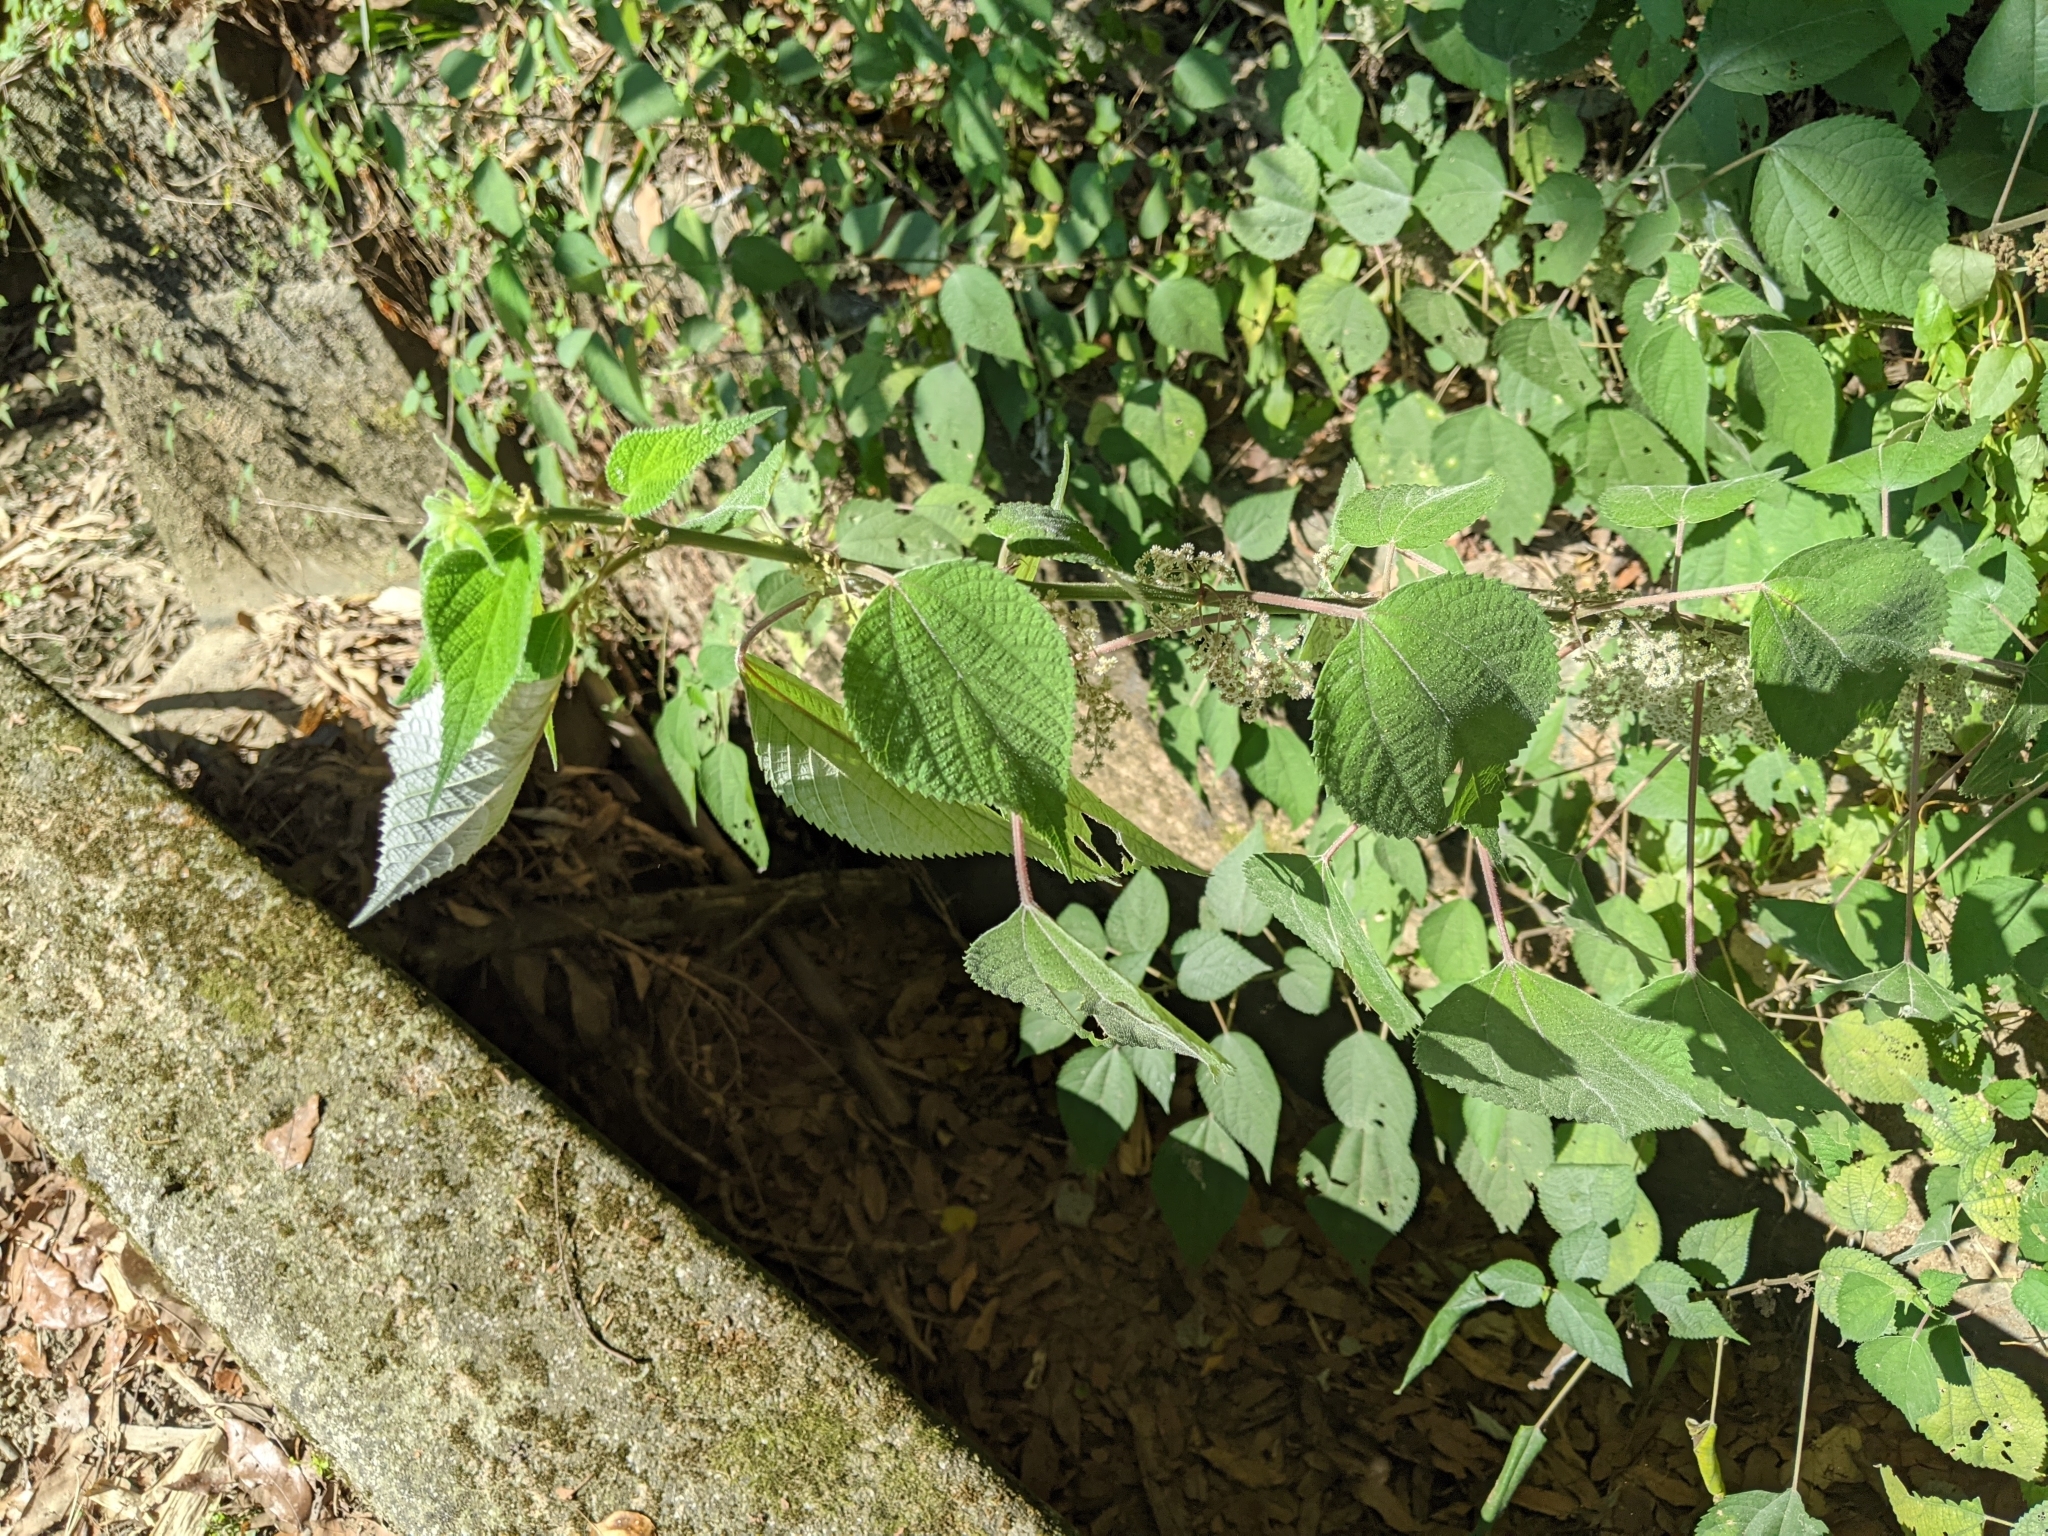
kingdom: Plantae
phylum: Tracheophyta
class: Magnoliopsida
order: Rosales
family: Urticaceae
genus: Boehmeria
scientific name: Boehmeria nivea
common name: Ramie chinese grass
